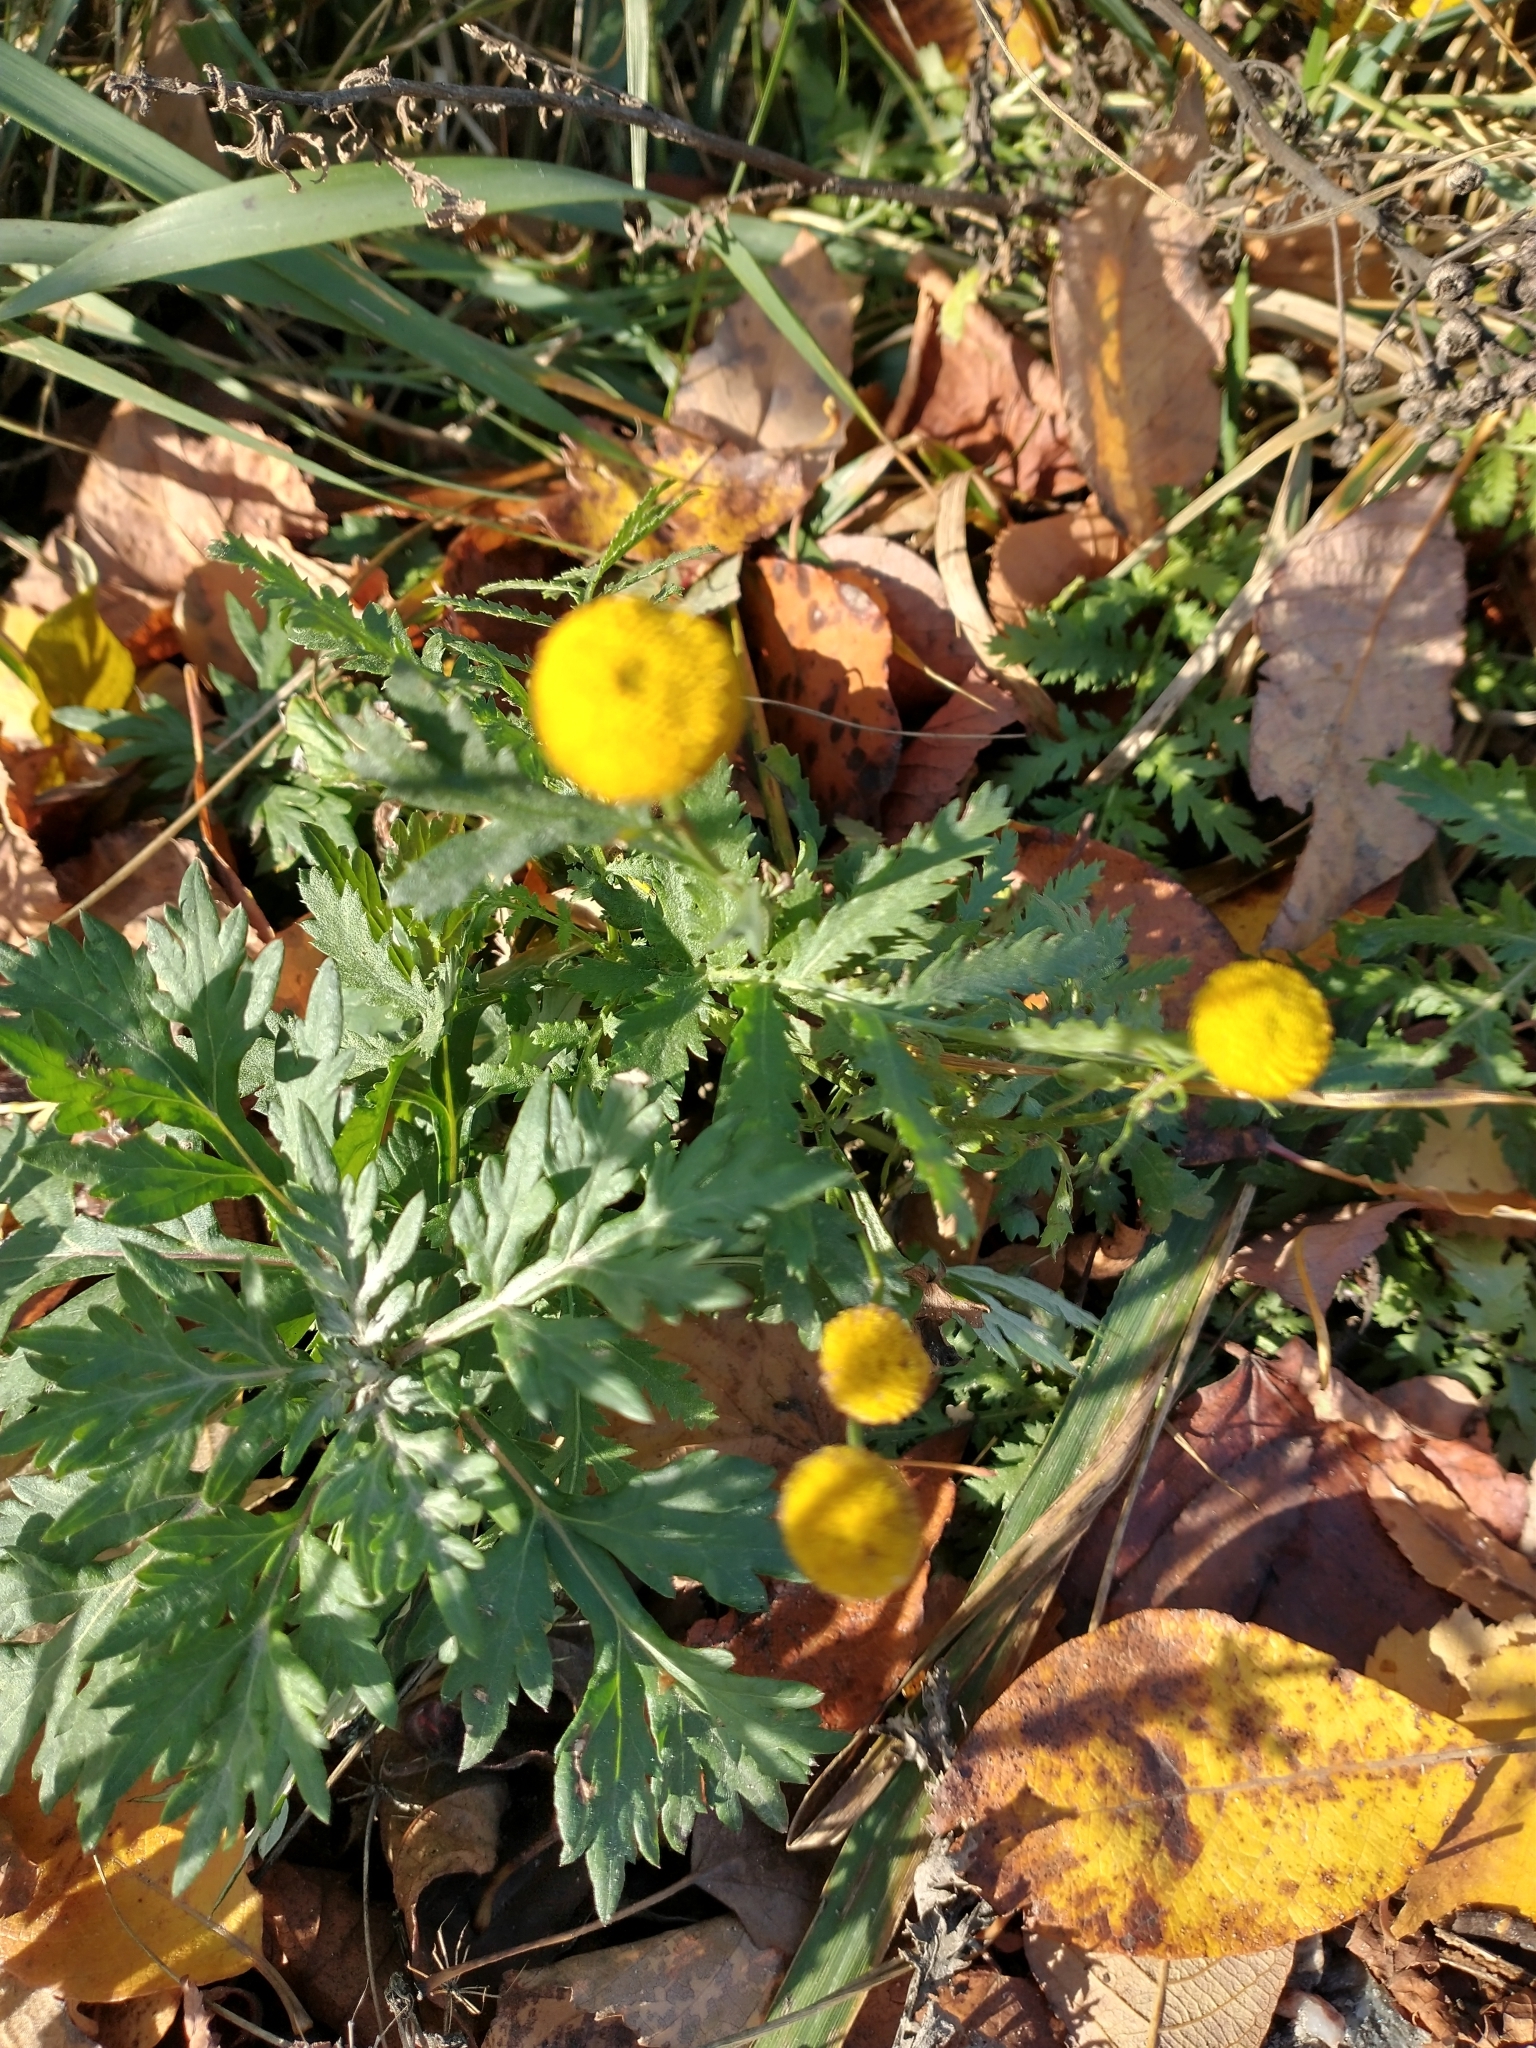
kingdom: Plantae
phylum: Tracheophyta
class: Magnoliopsida
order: Asterales
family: Asteraceae
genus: Tanacetum
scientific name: Tanacetum vulgare
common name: Common tansy
